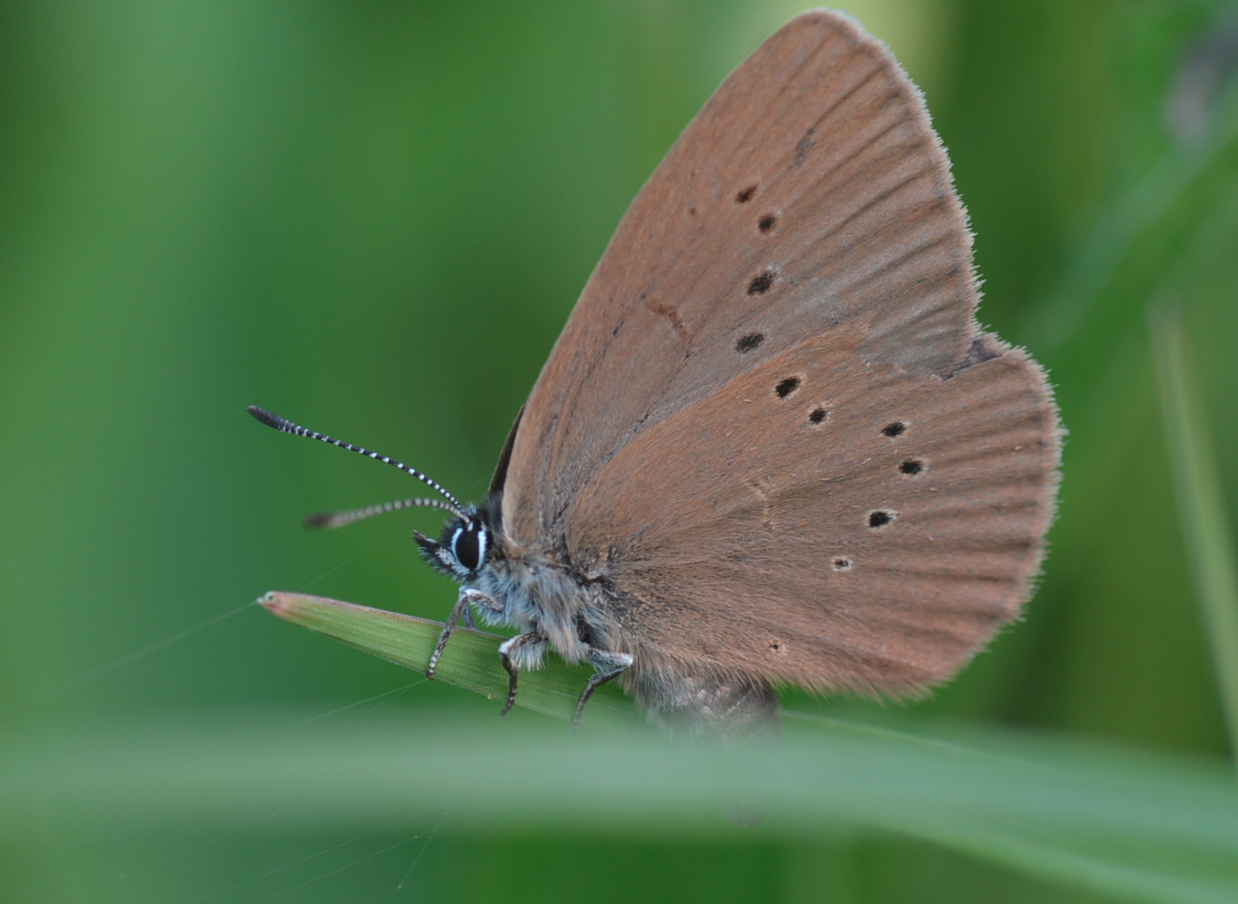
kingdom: Animalia
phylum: Arthropoda
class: Insecta
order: Lepidoptera
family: Lycaenidae
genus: Maculinea
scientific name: Maculinea nausithous
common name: Dusky large blue
